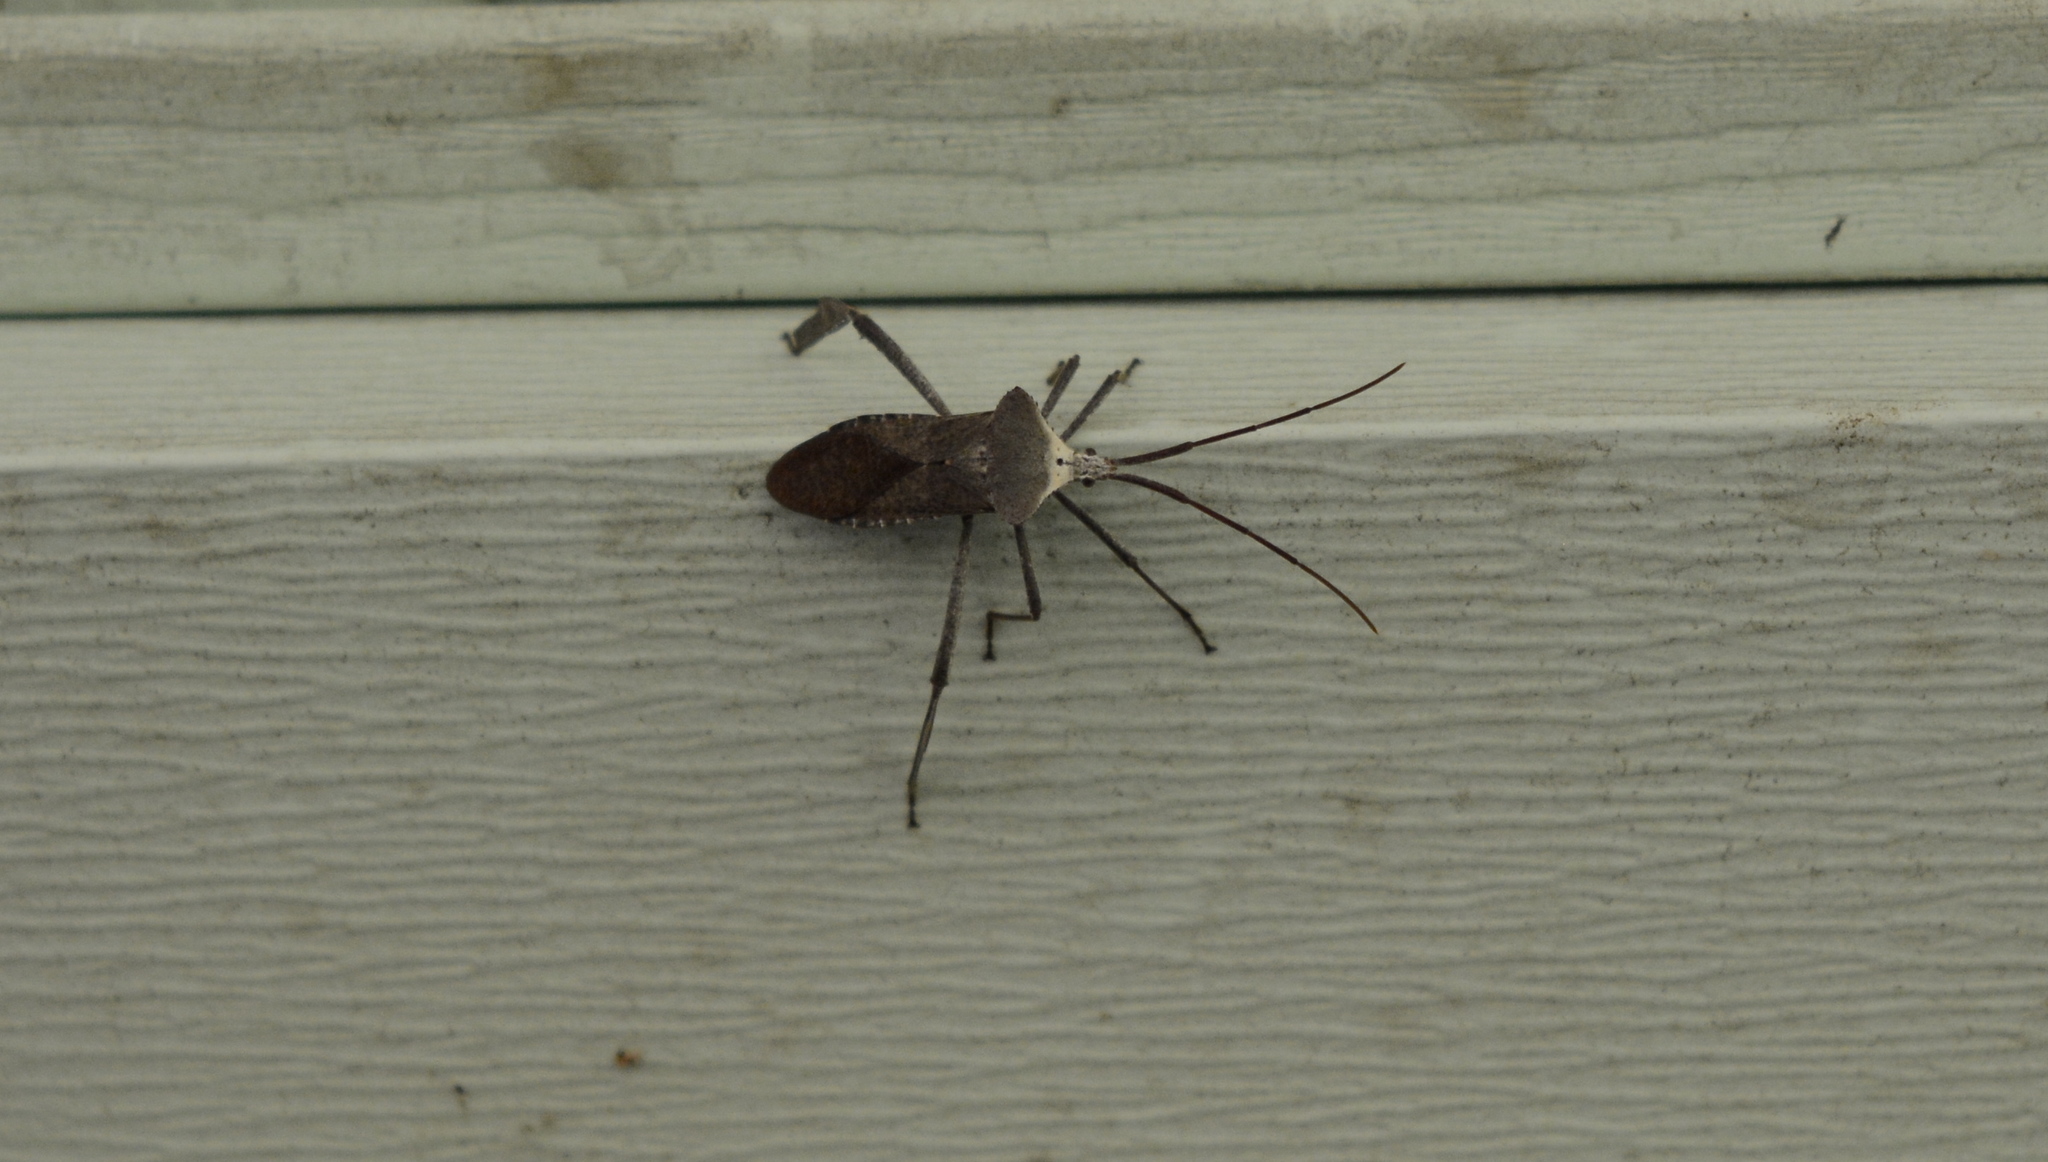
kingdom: Animalia
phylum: Arthropoda
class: Insecta
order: Hemiptera
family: Coreidae
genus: Acanthocephala
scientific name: Acanthocephala declivis
